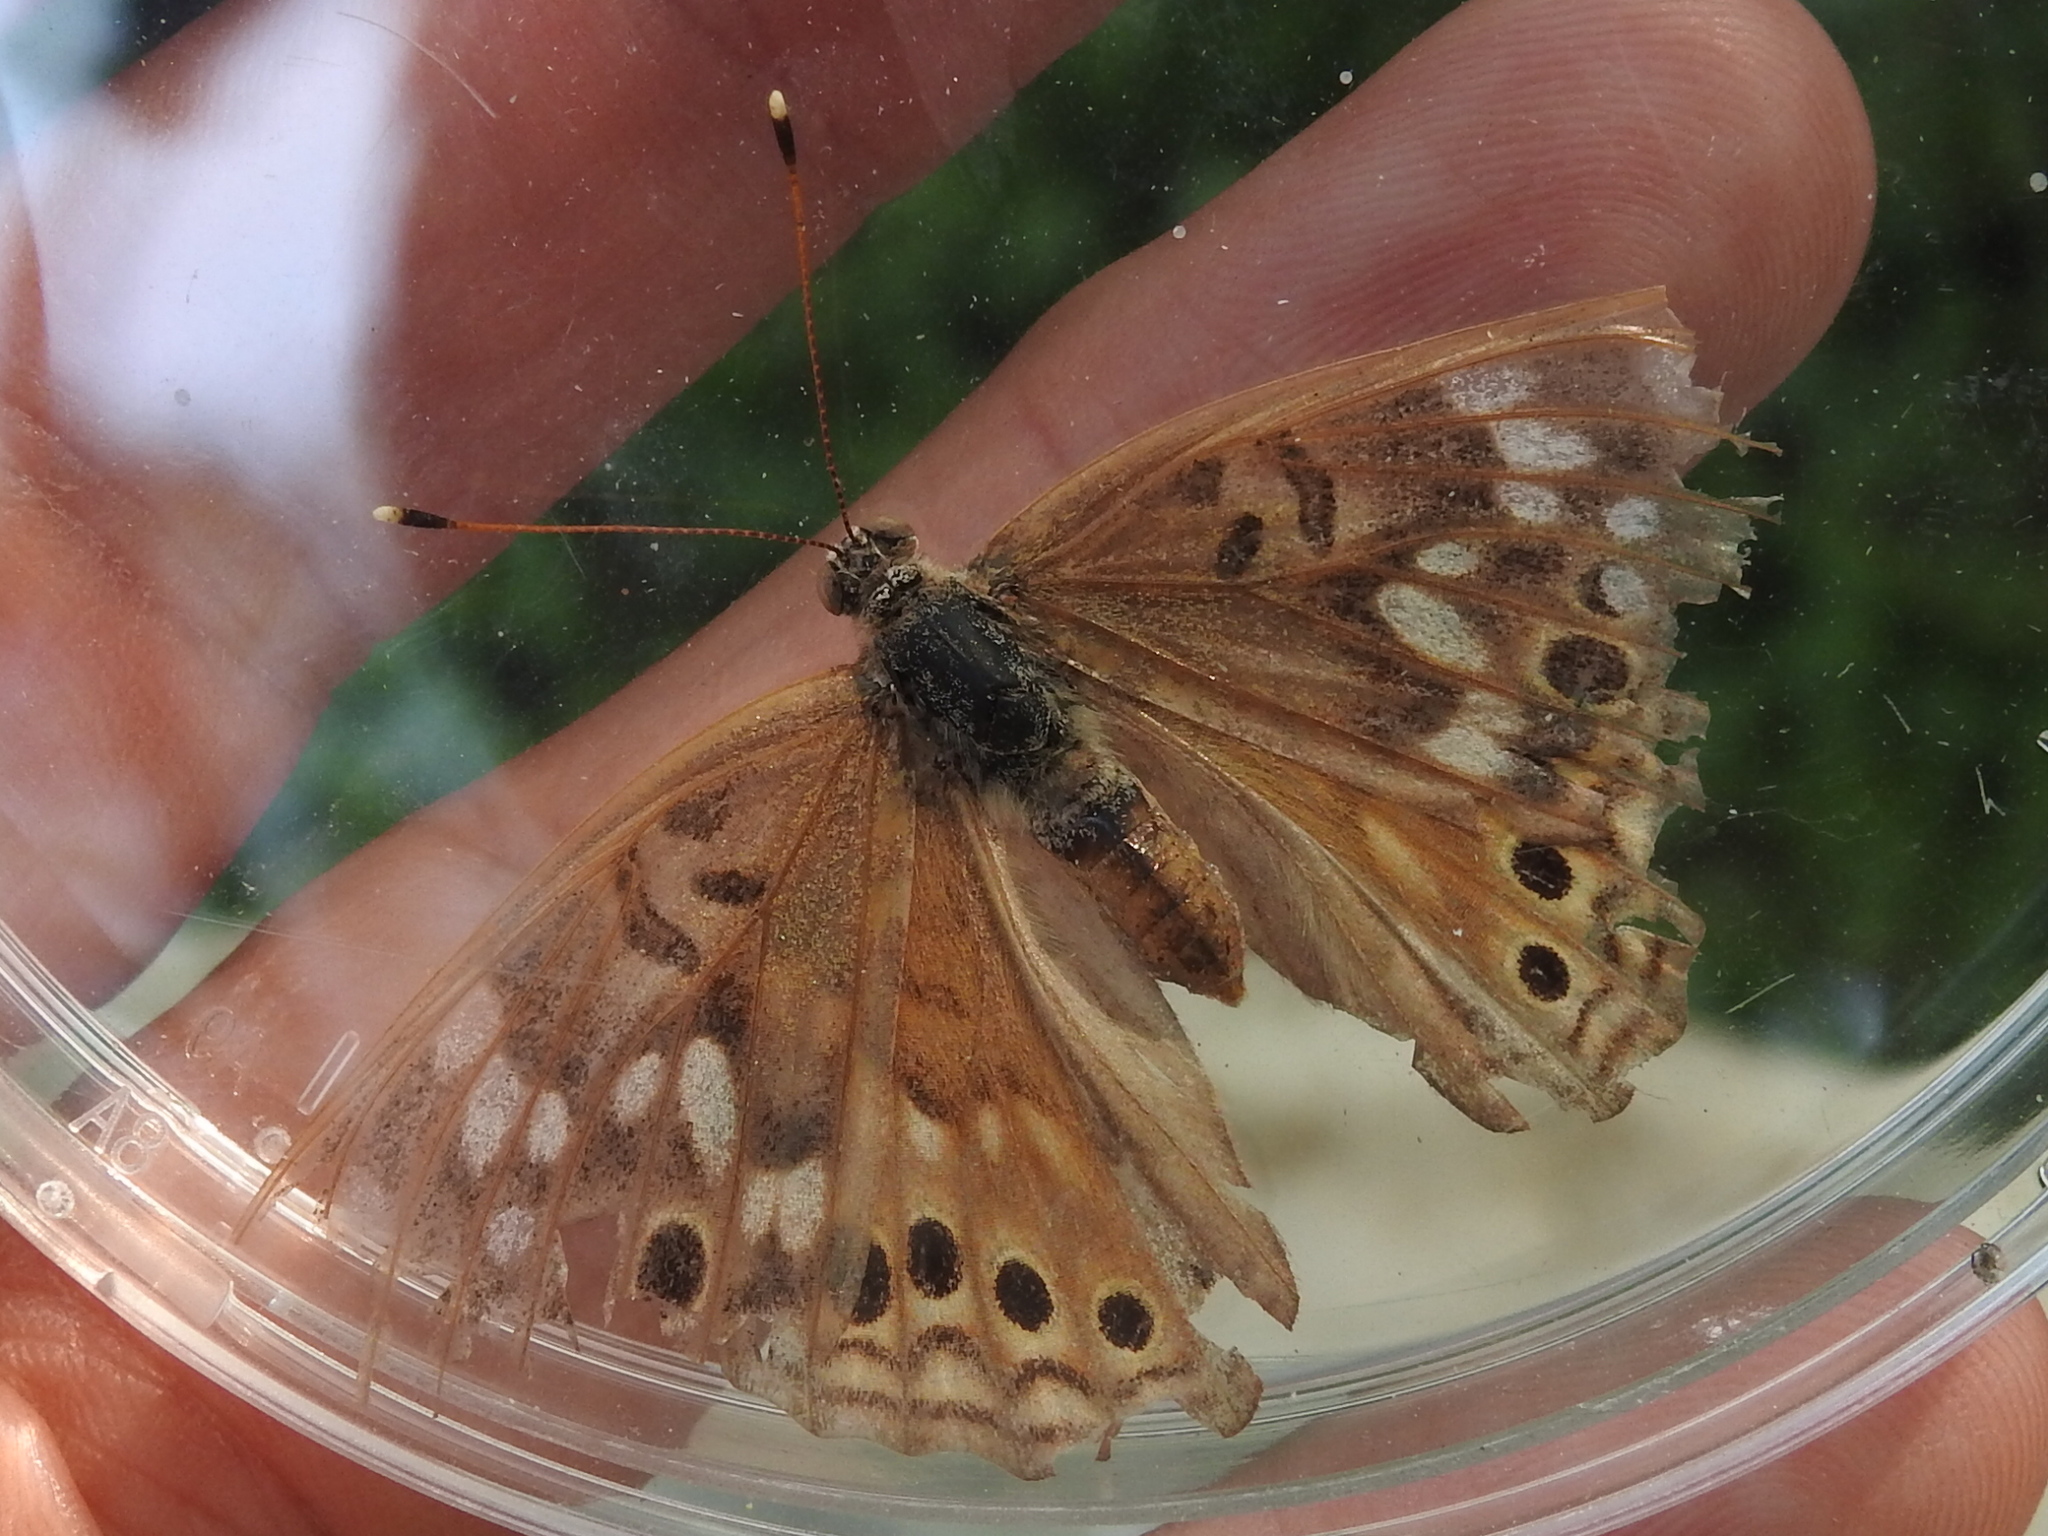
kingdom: Animalia
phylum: Arthropoda
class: Insecta
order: Lepidoptera
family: Nymphalidae
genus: Asterocampa
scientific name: Asterocampa celtis
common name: Hackberry emperor
